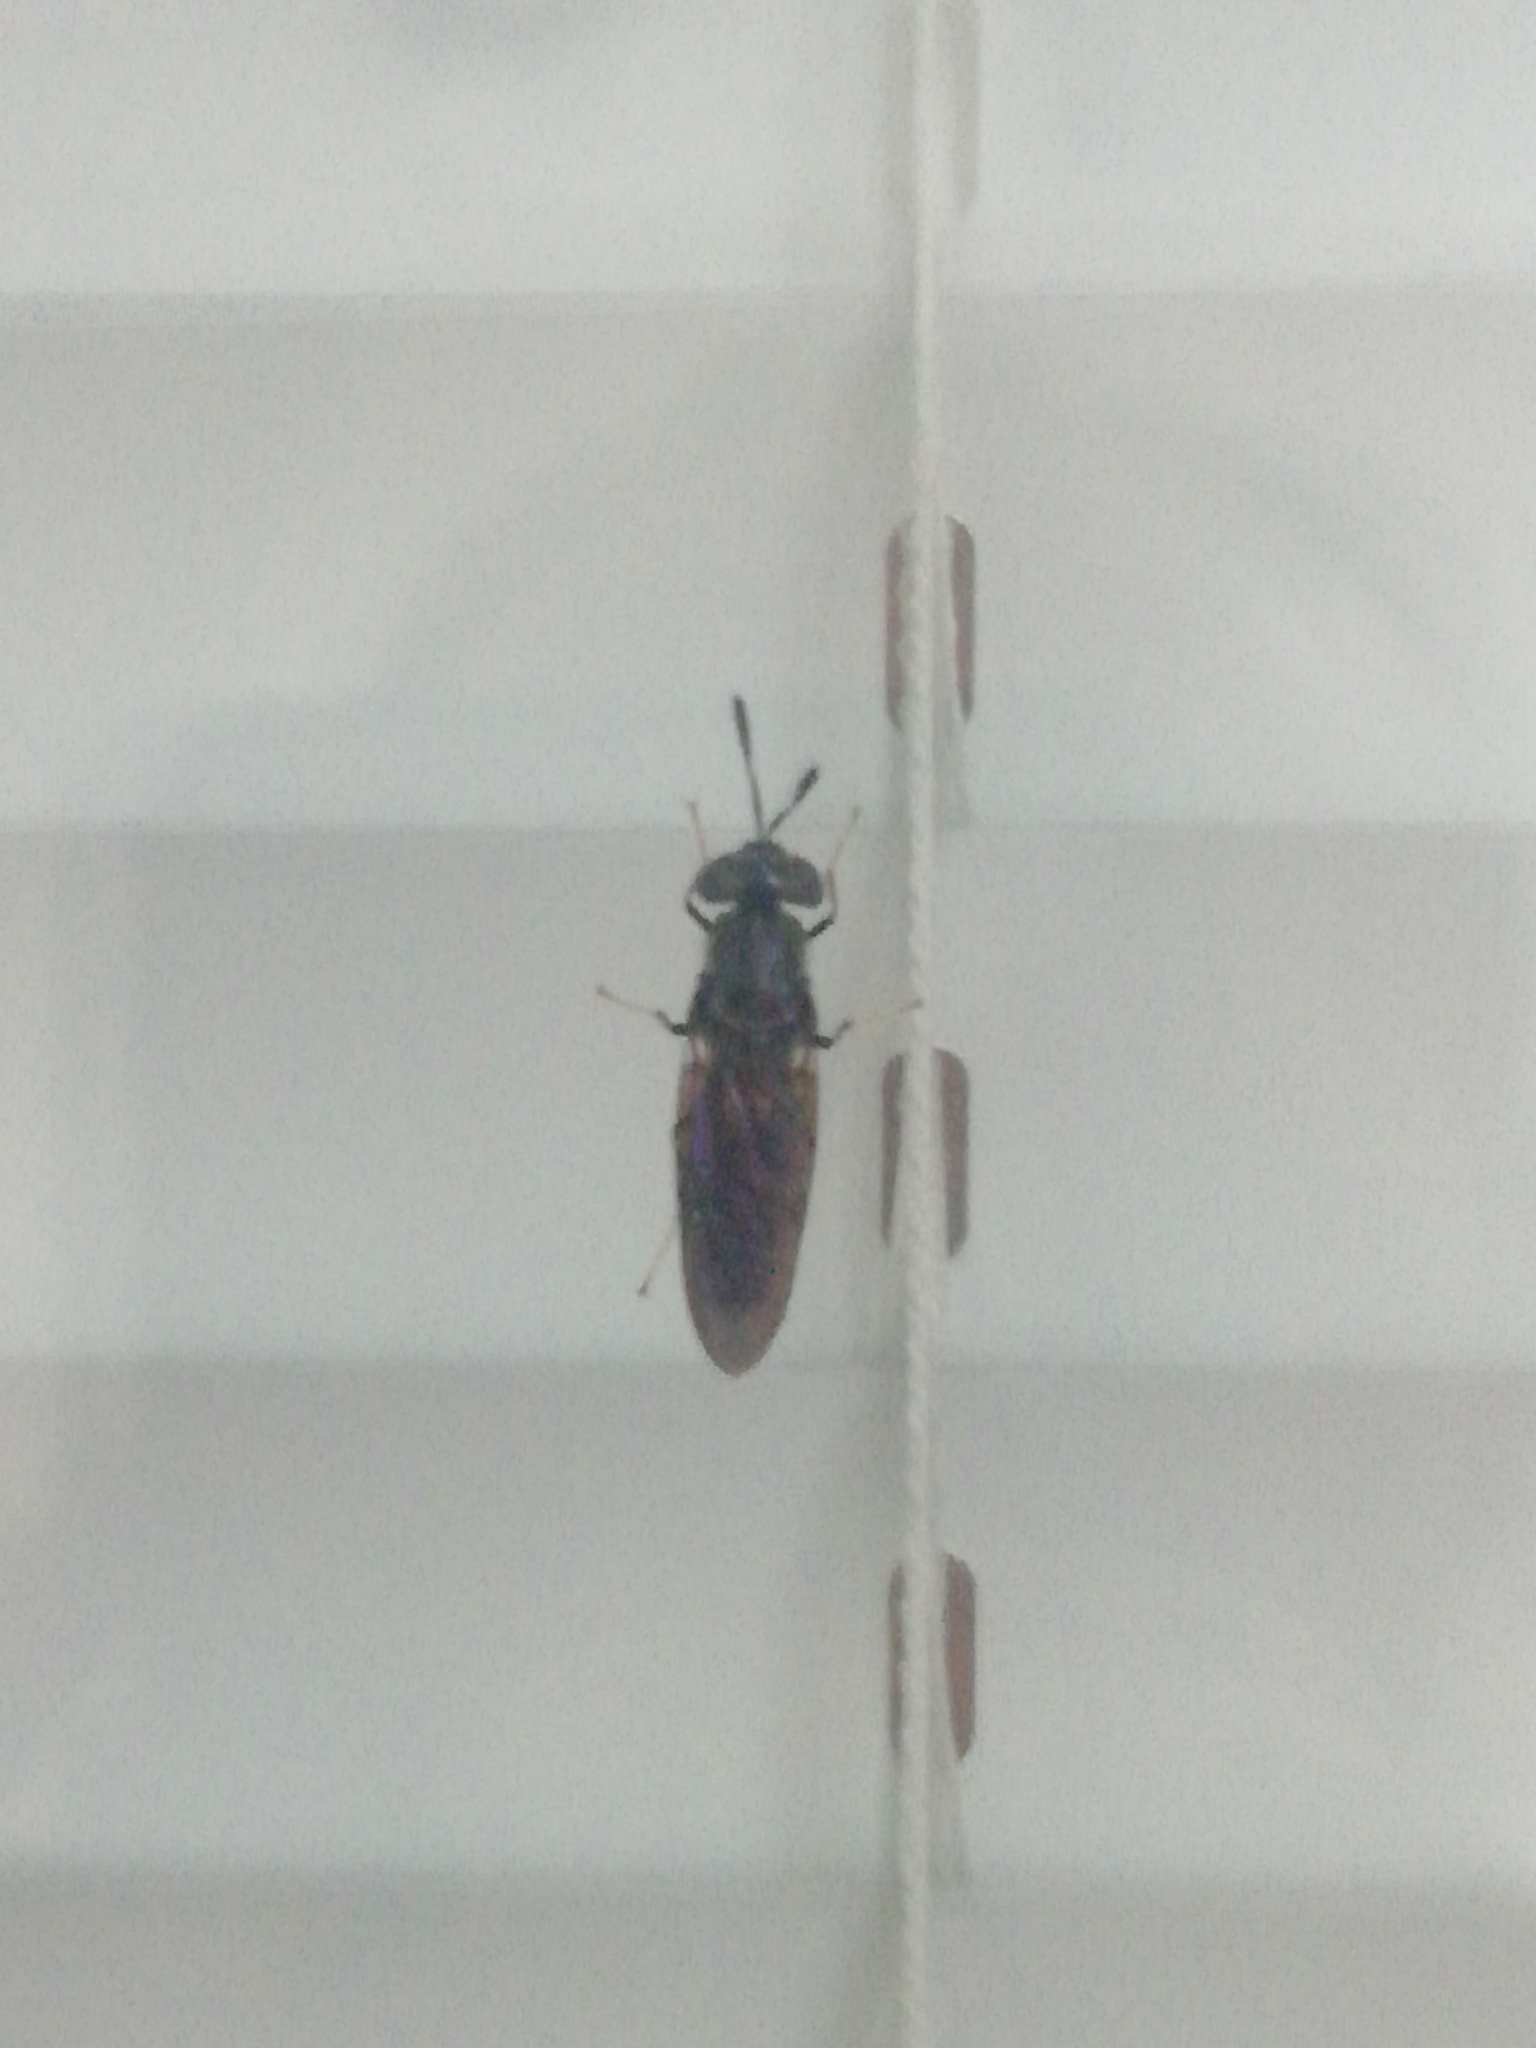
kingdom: Animalia
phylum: Arthropoda
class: Insecta
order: Diptera
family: Stratiomyidae
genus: Hermetia
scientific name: Hermetia illucens
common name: Black soldier fly
